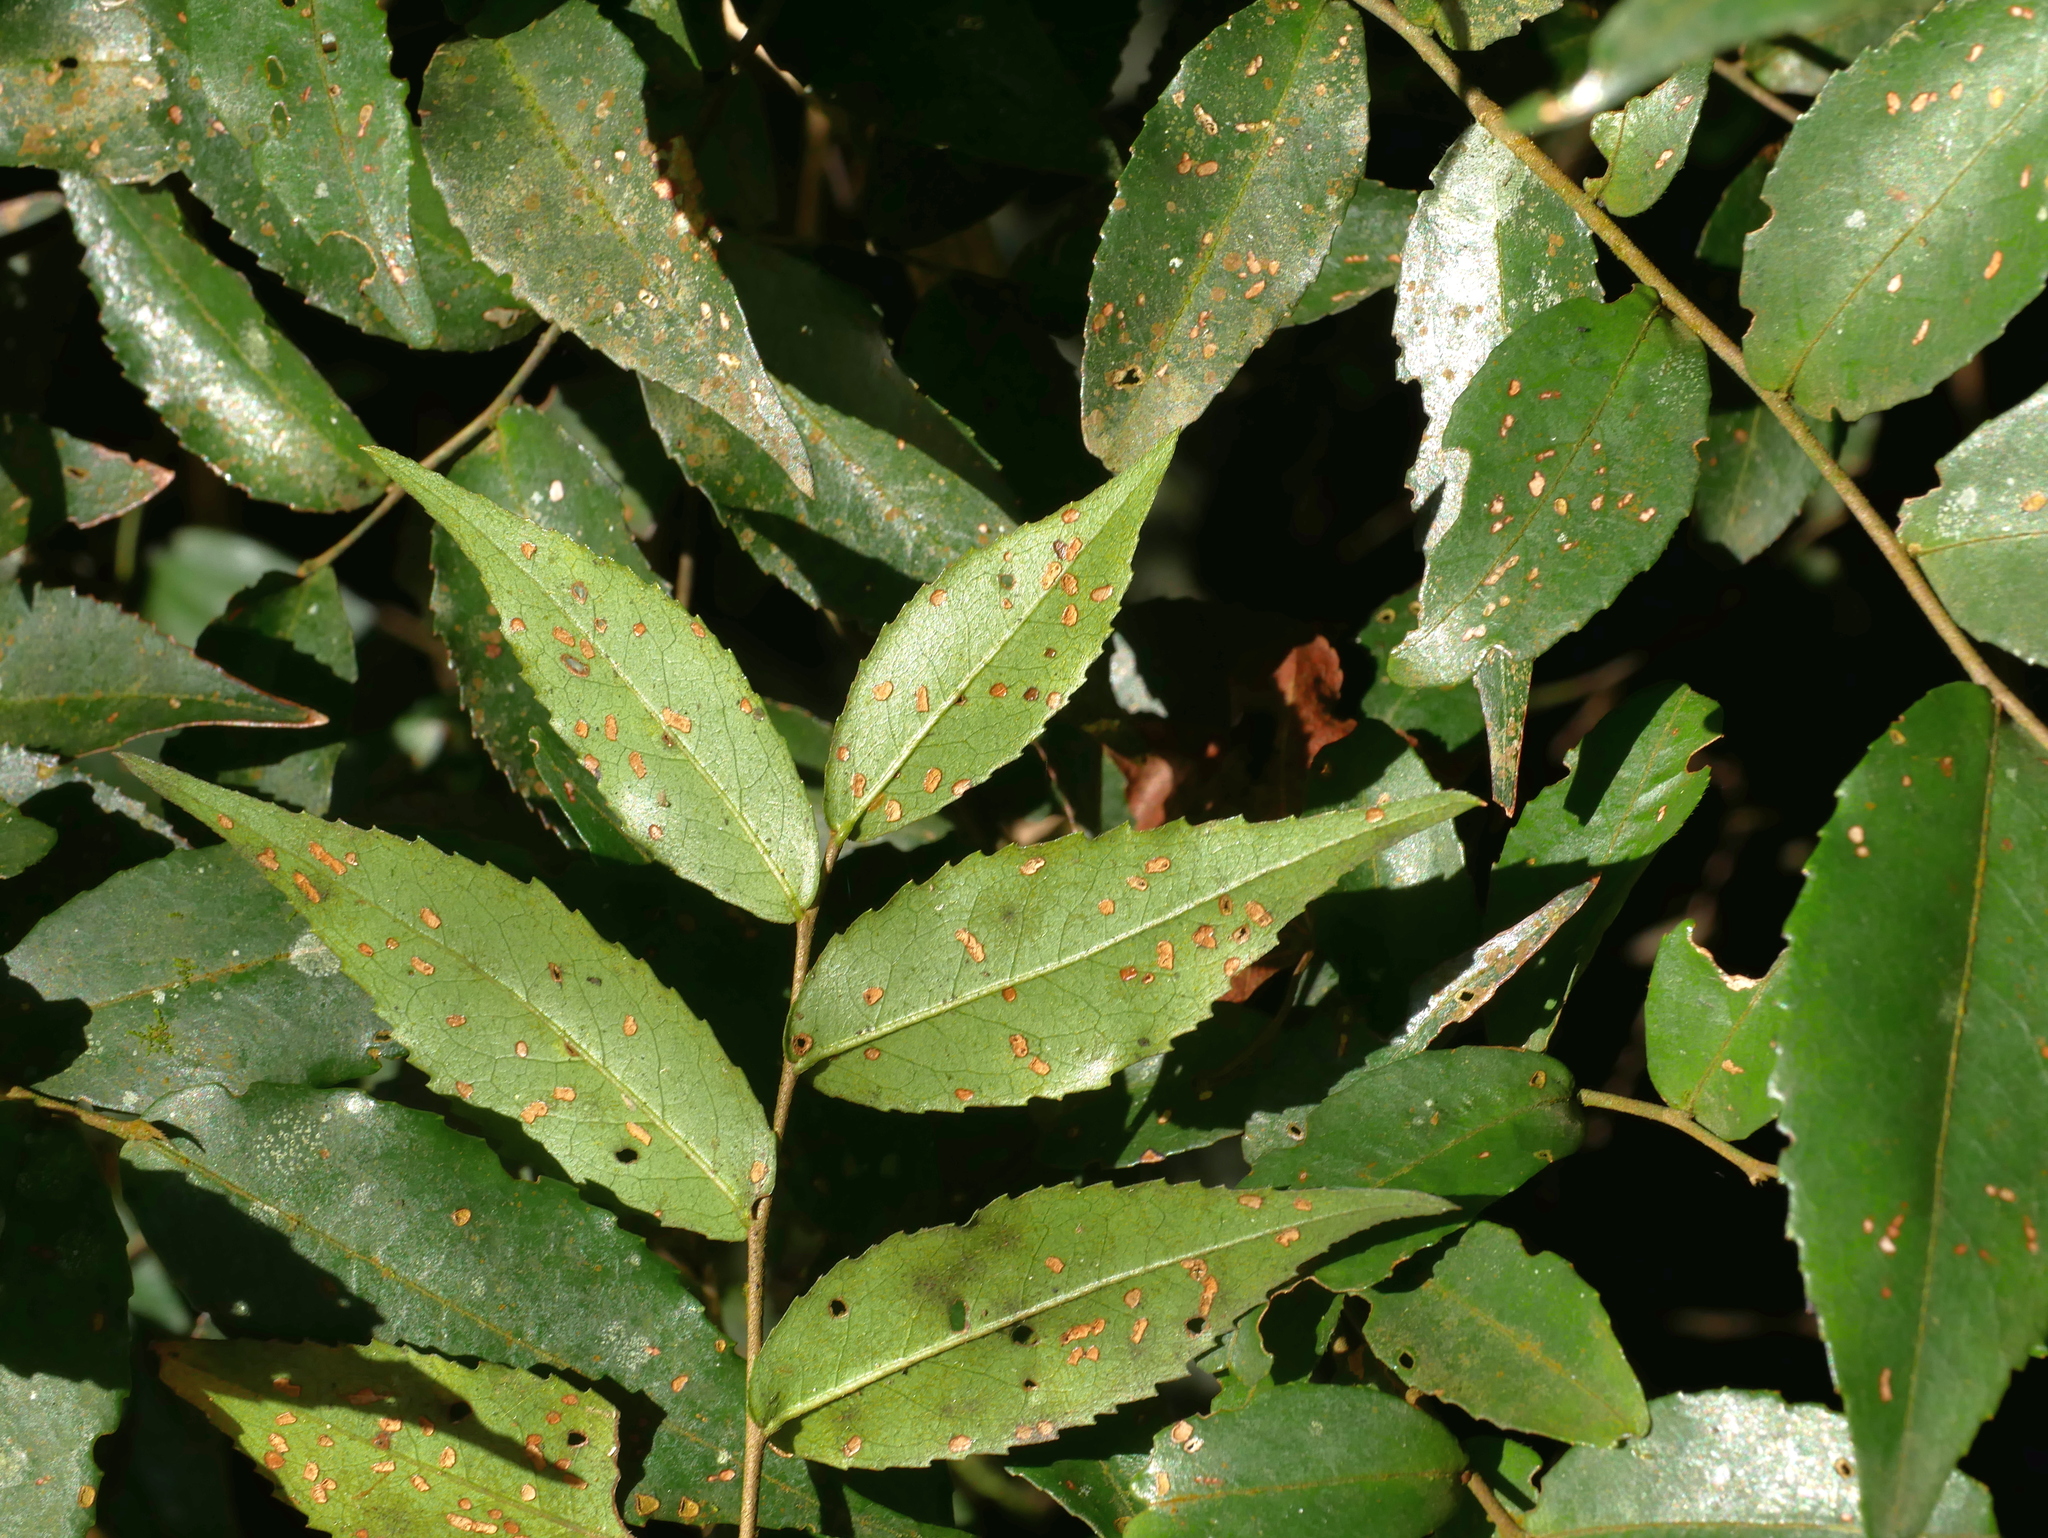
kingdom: Plantae
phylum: Tracheophyta
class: Magnoliopsida
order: Ericales
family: Symplocaceae
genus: Symplocos
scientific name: Symplocos lancifolia
